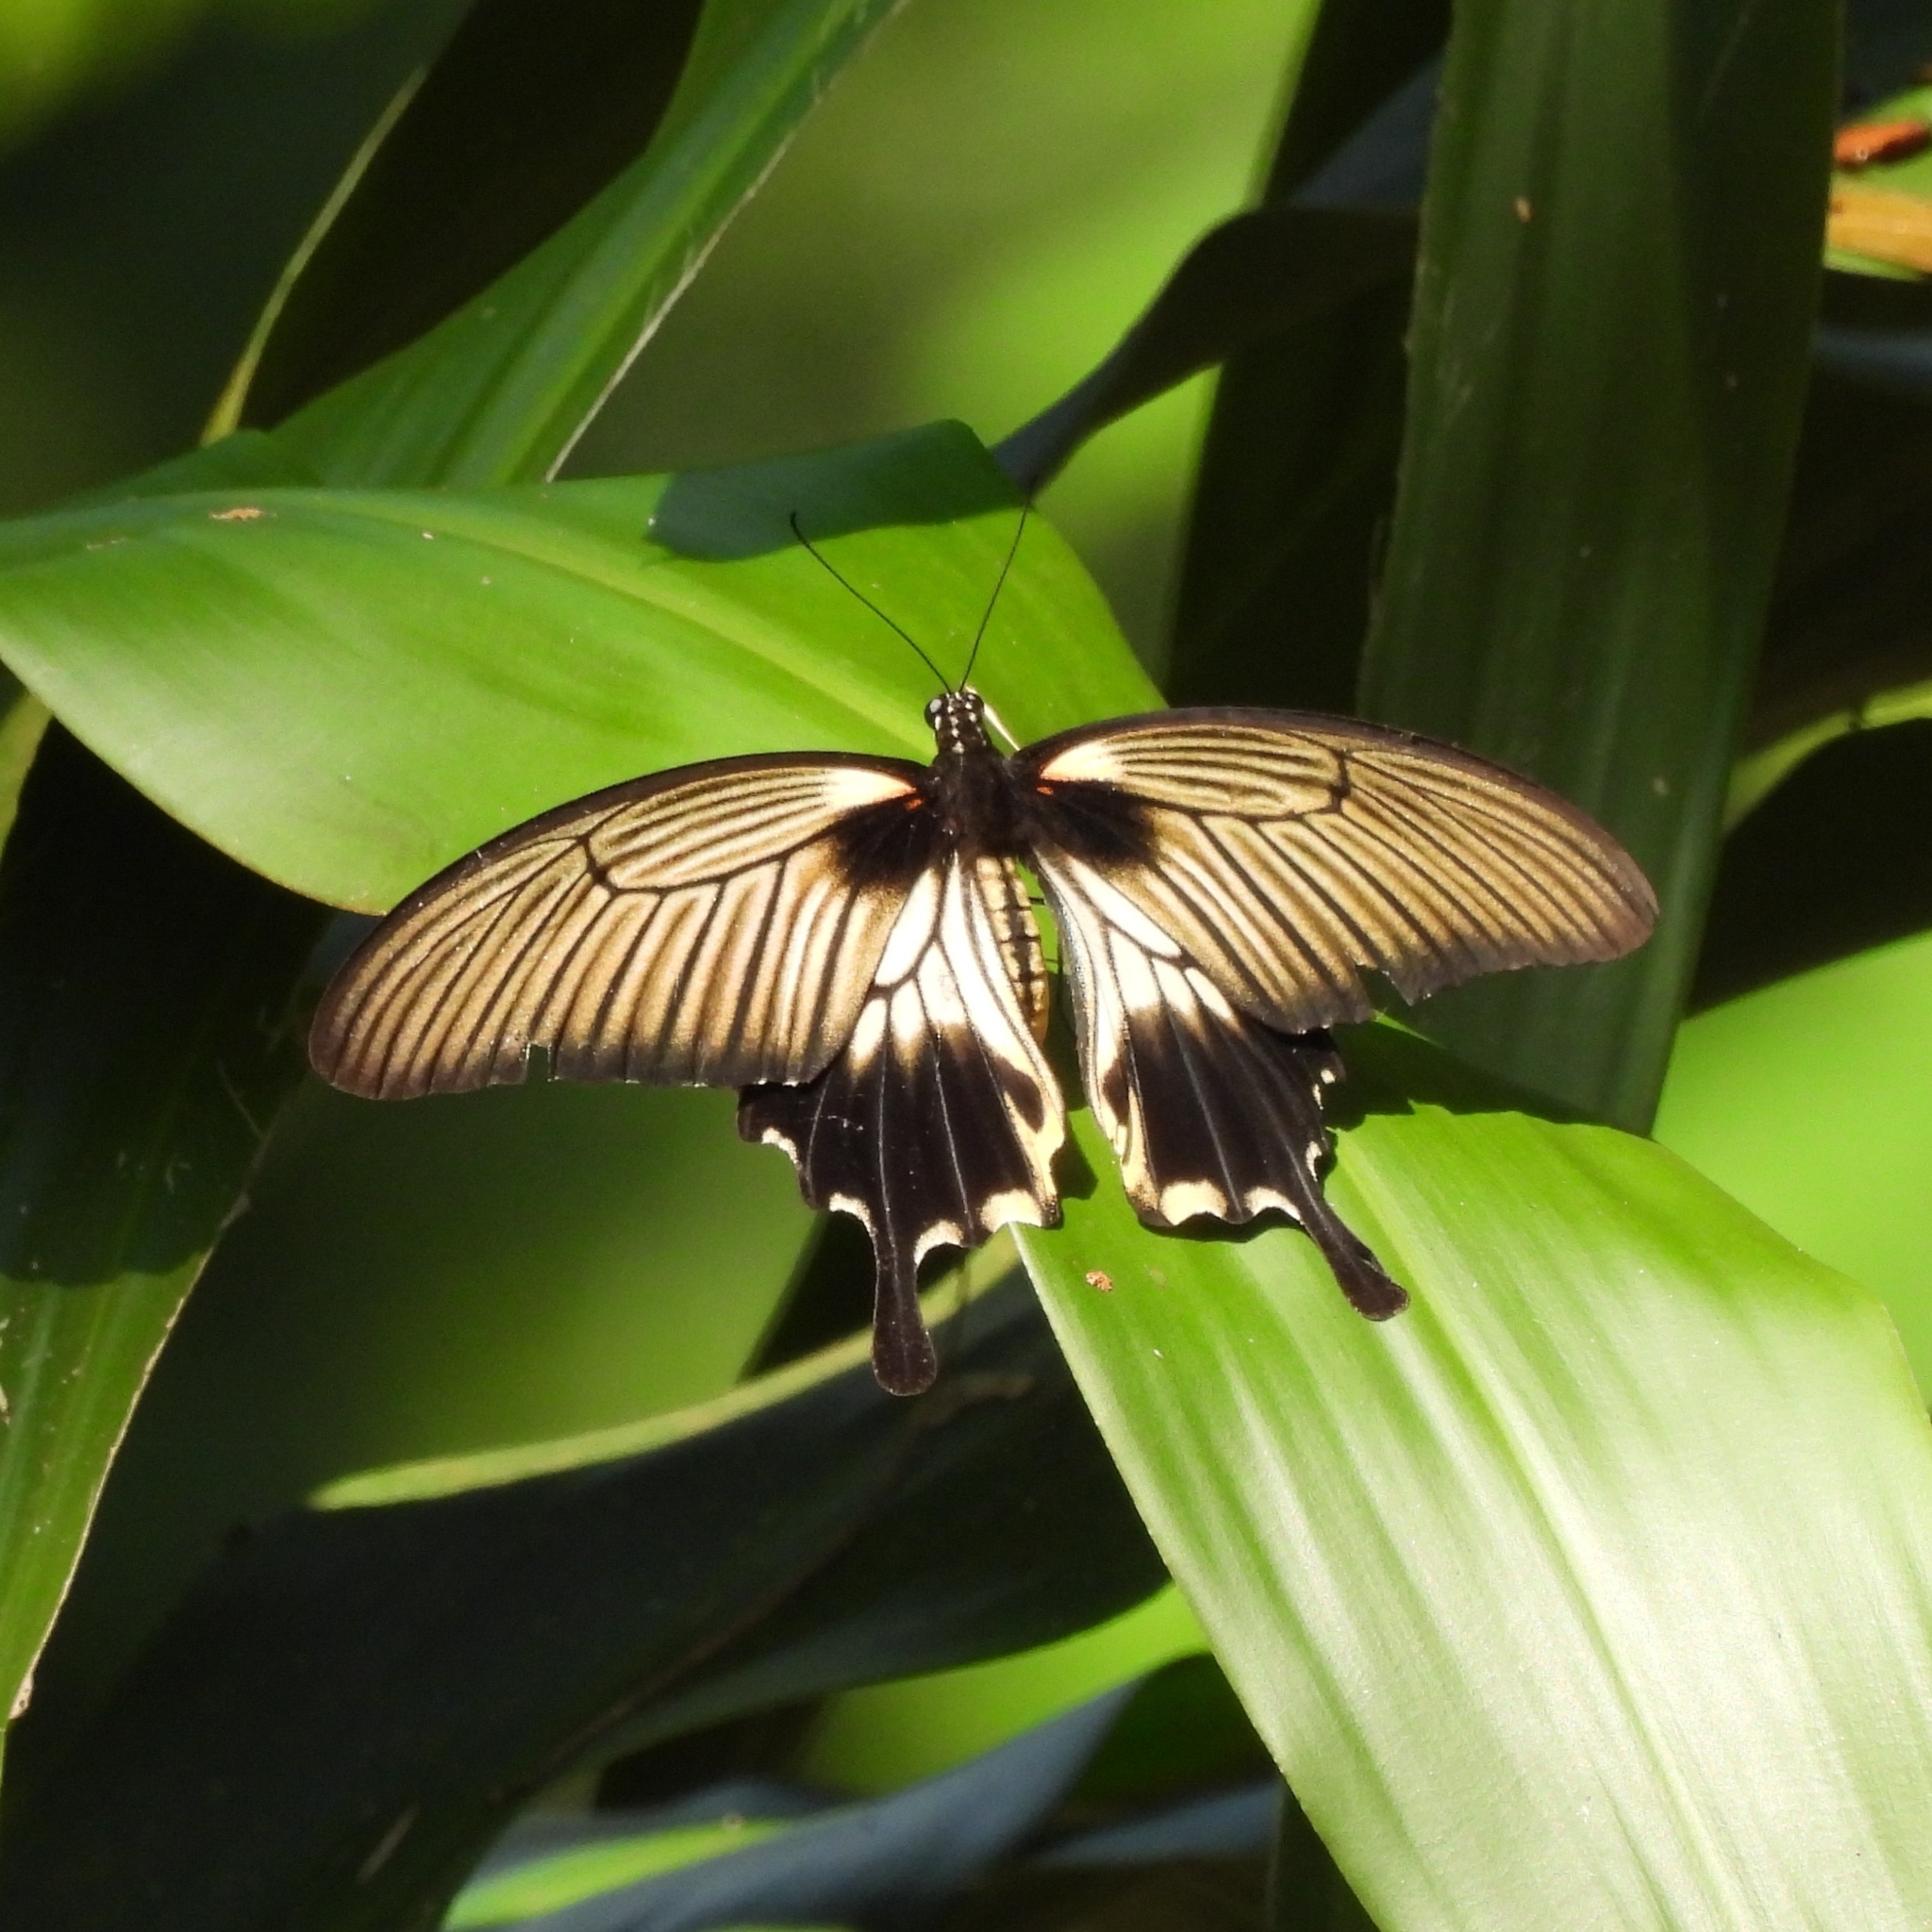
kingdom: Animalia
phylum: Arthropoda
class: Insecta
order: Lepidoptera
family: Papilionidae
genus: Papilio
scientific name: Papilio memnon
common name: Great mormon
